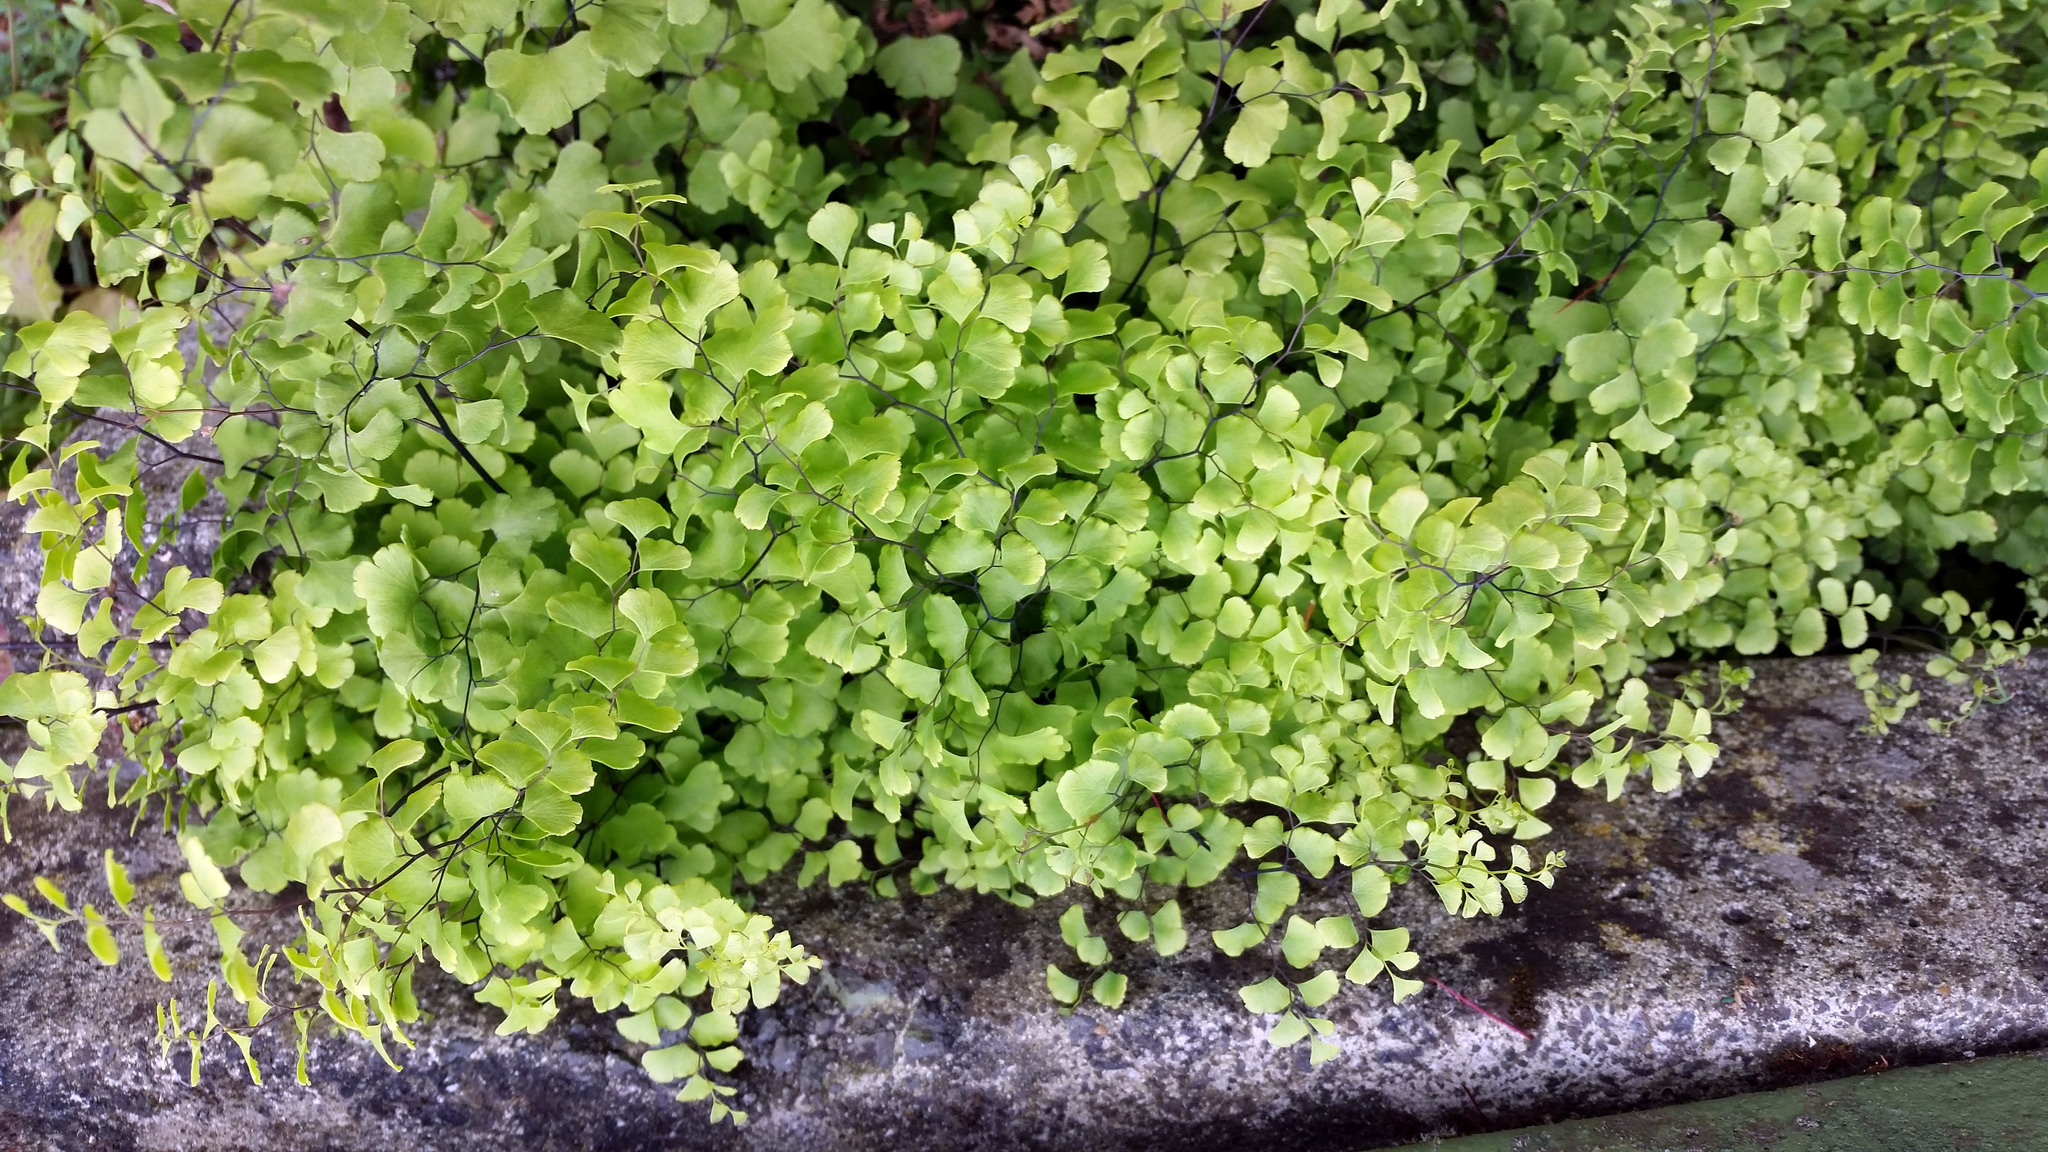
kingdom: Plantae
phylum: Tracheophyta
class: Polypodiopsida
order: Polypodiales
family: Pteridaceae
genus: Adiantum
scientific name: Adiantum capillus-veneris
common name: Maidenhair fern
